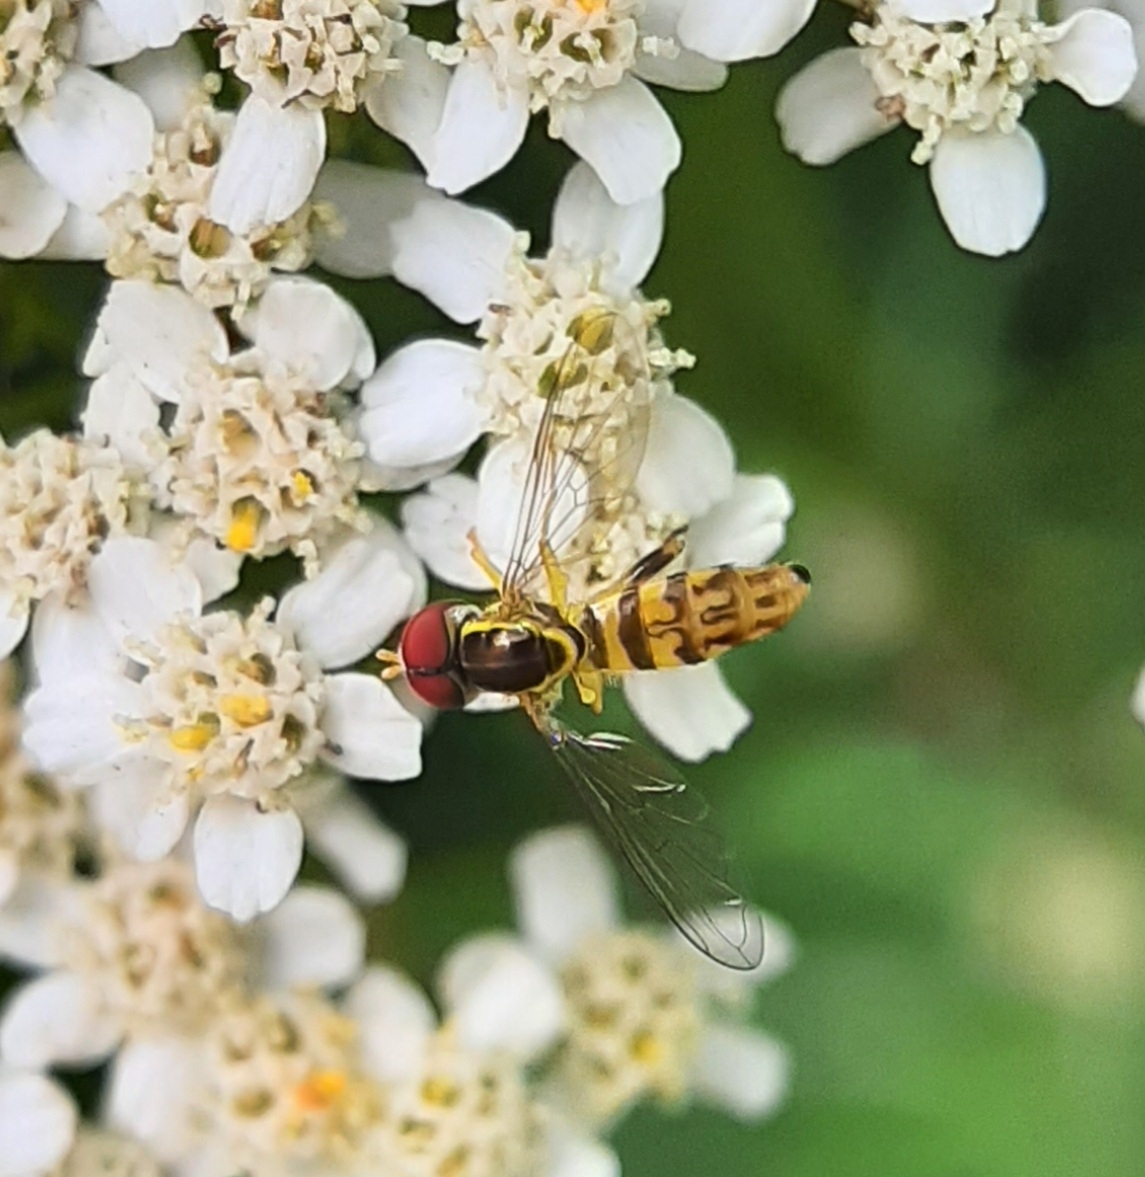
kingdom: Animalia
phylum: Arthropoda
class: Insecta
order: Diptera
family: Syrphidae
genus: Toxomerus
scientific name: Toxomerus geminatus
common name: Eastern calligrapher
